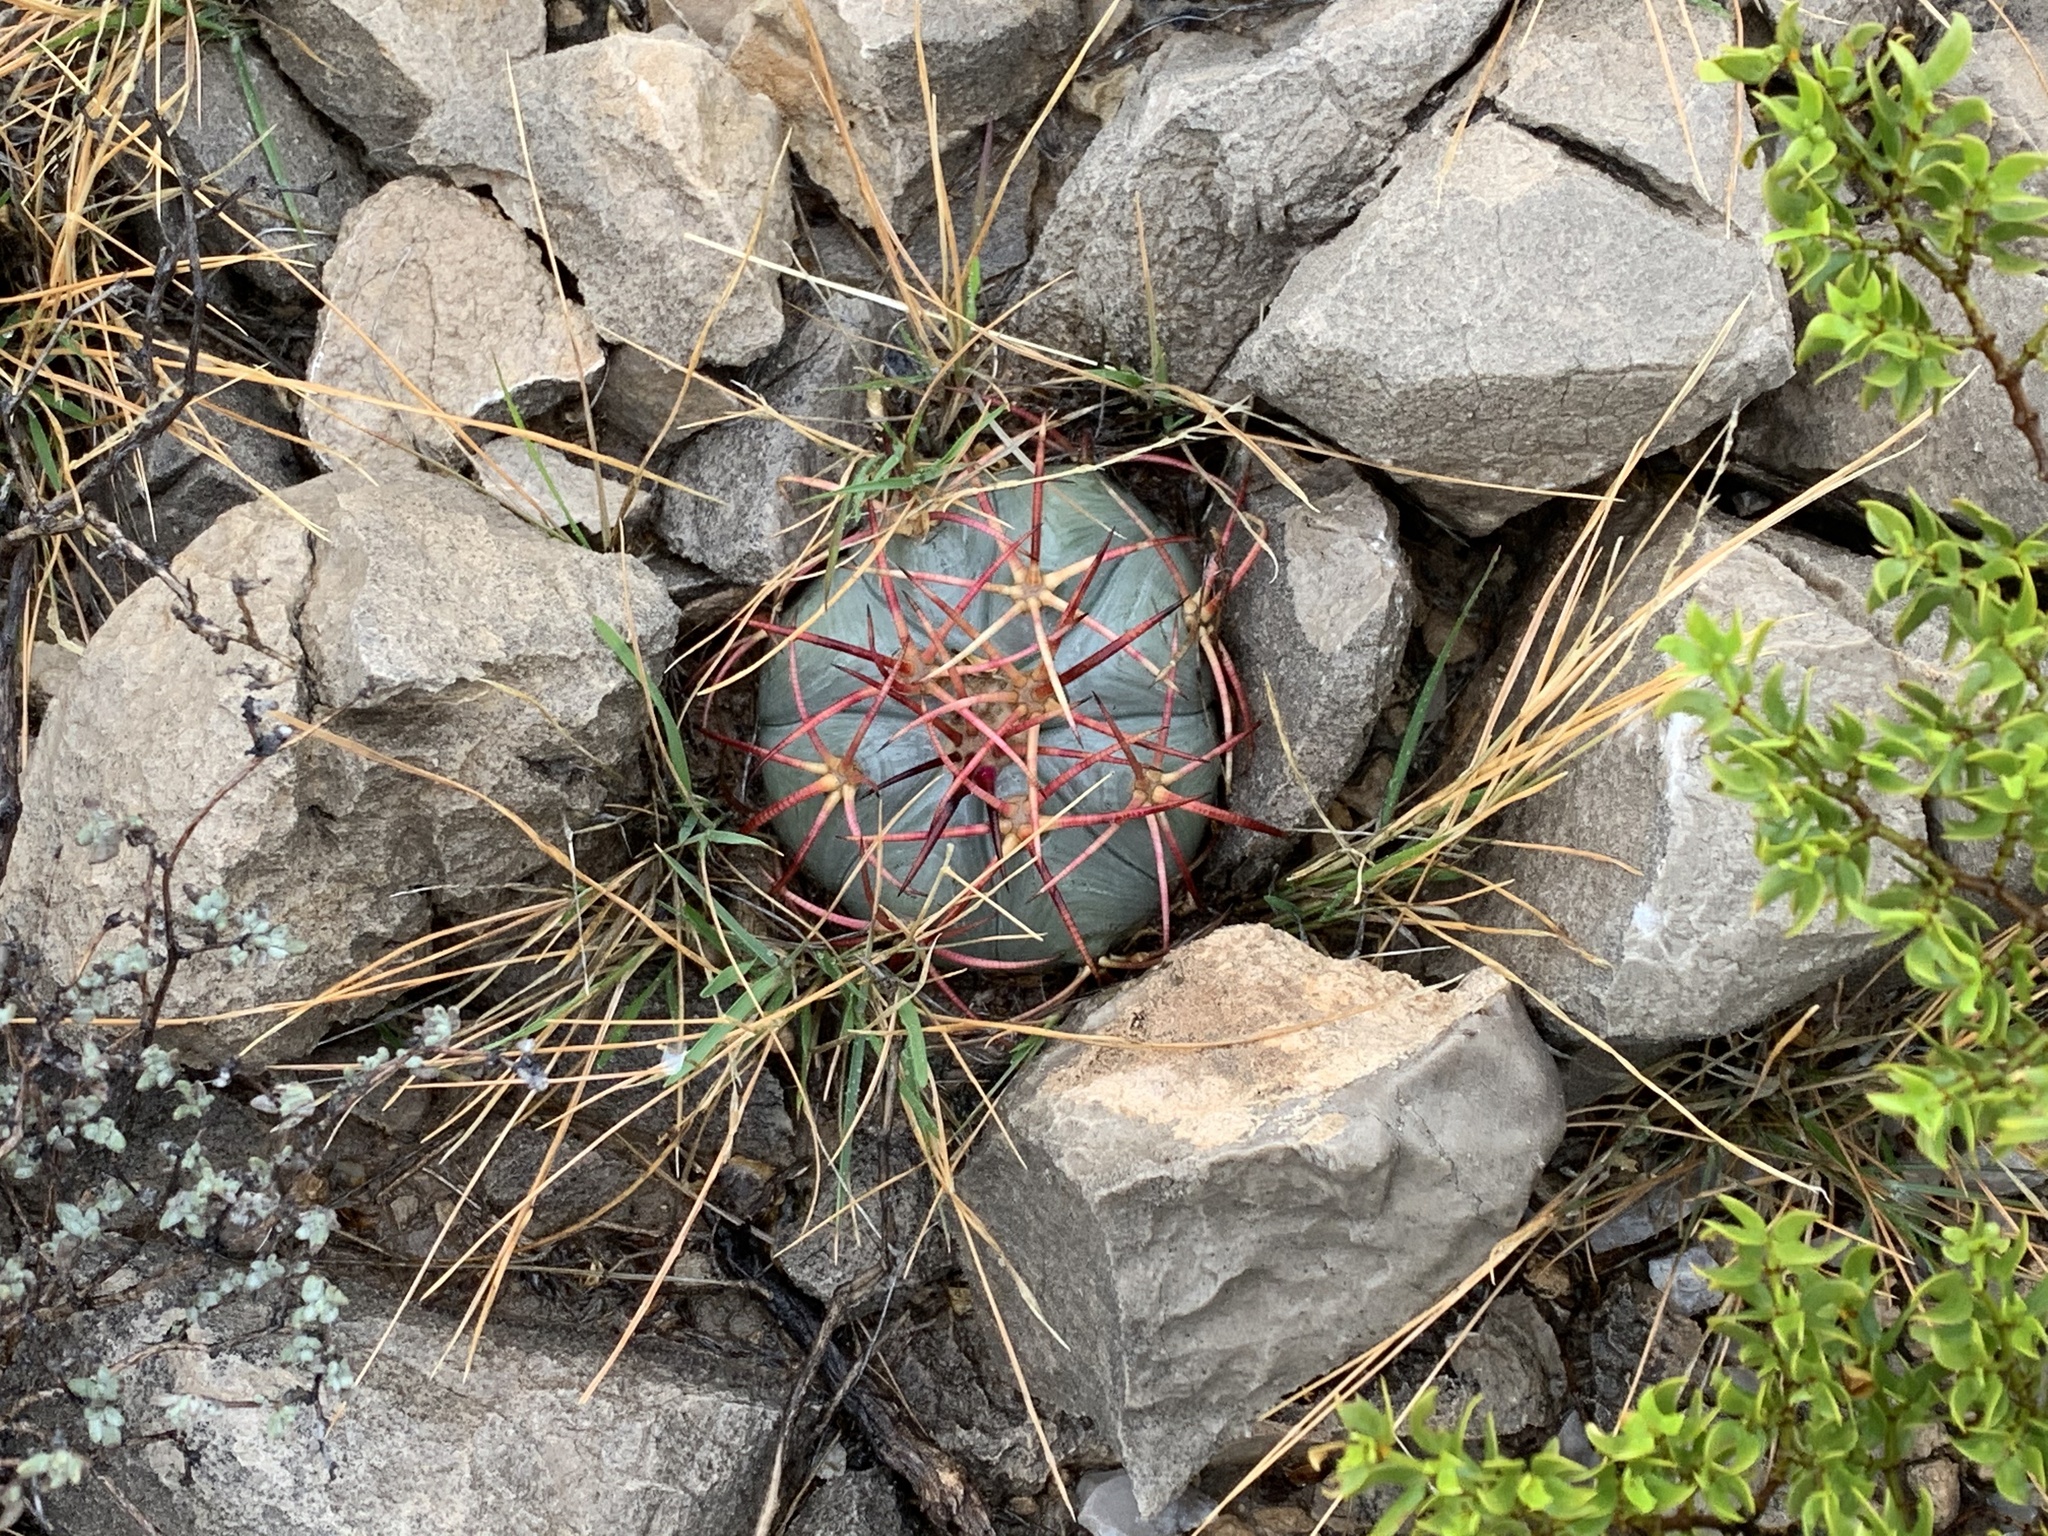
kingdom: Plantae
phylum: Tracheophyta
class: Magnoliopsida
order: Caryophyllales
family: Cactaceae
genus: Echinocactus
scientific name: Echinocactus horizonthalonius
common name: Devilshead
